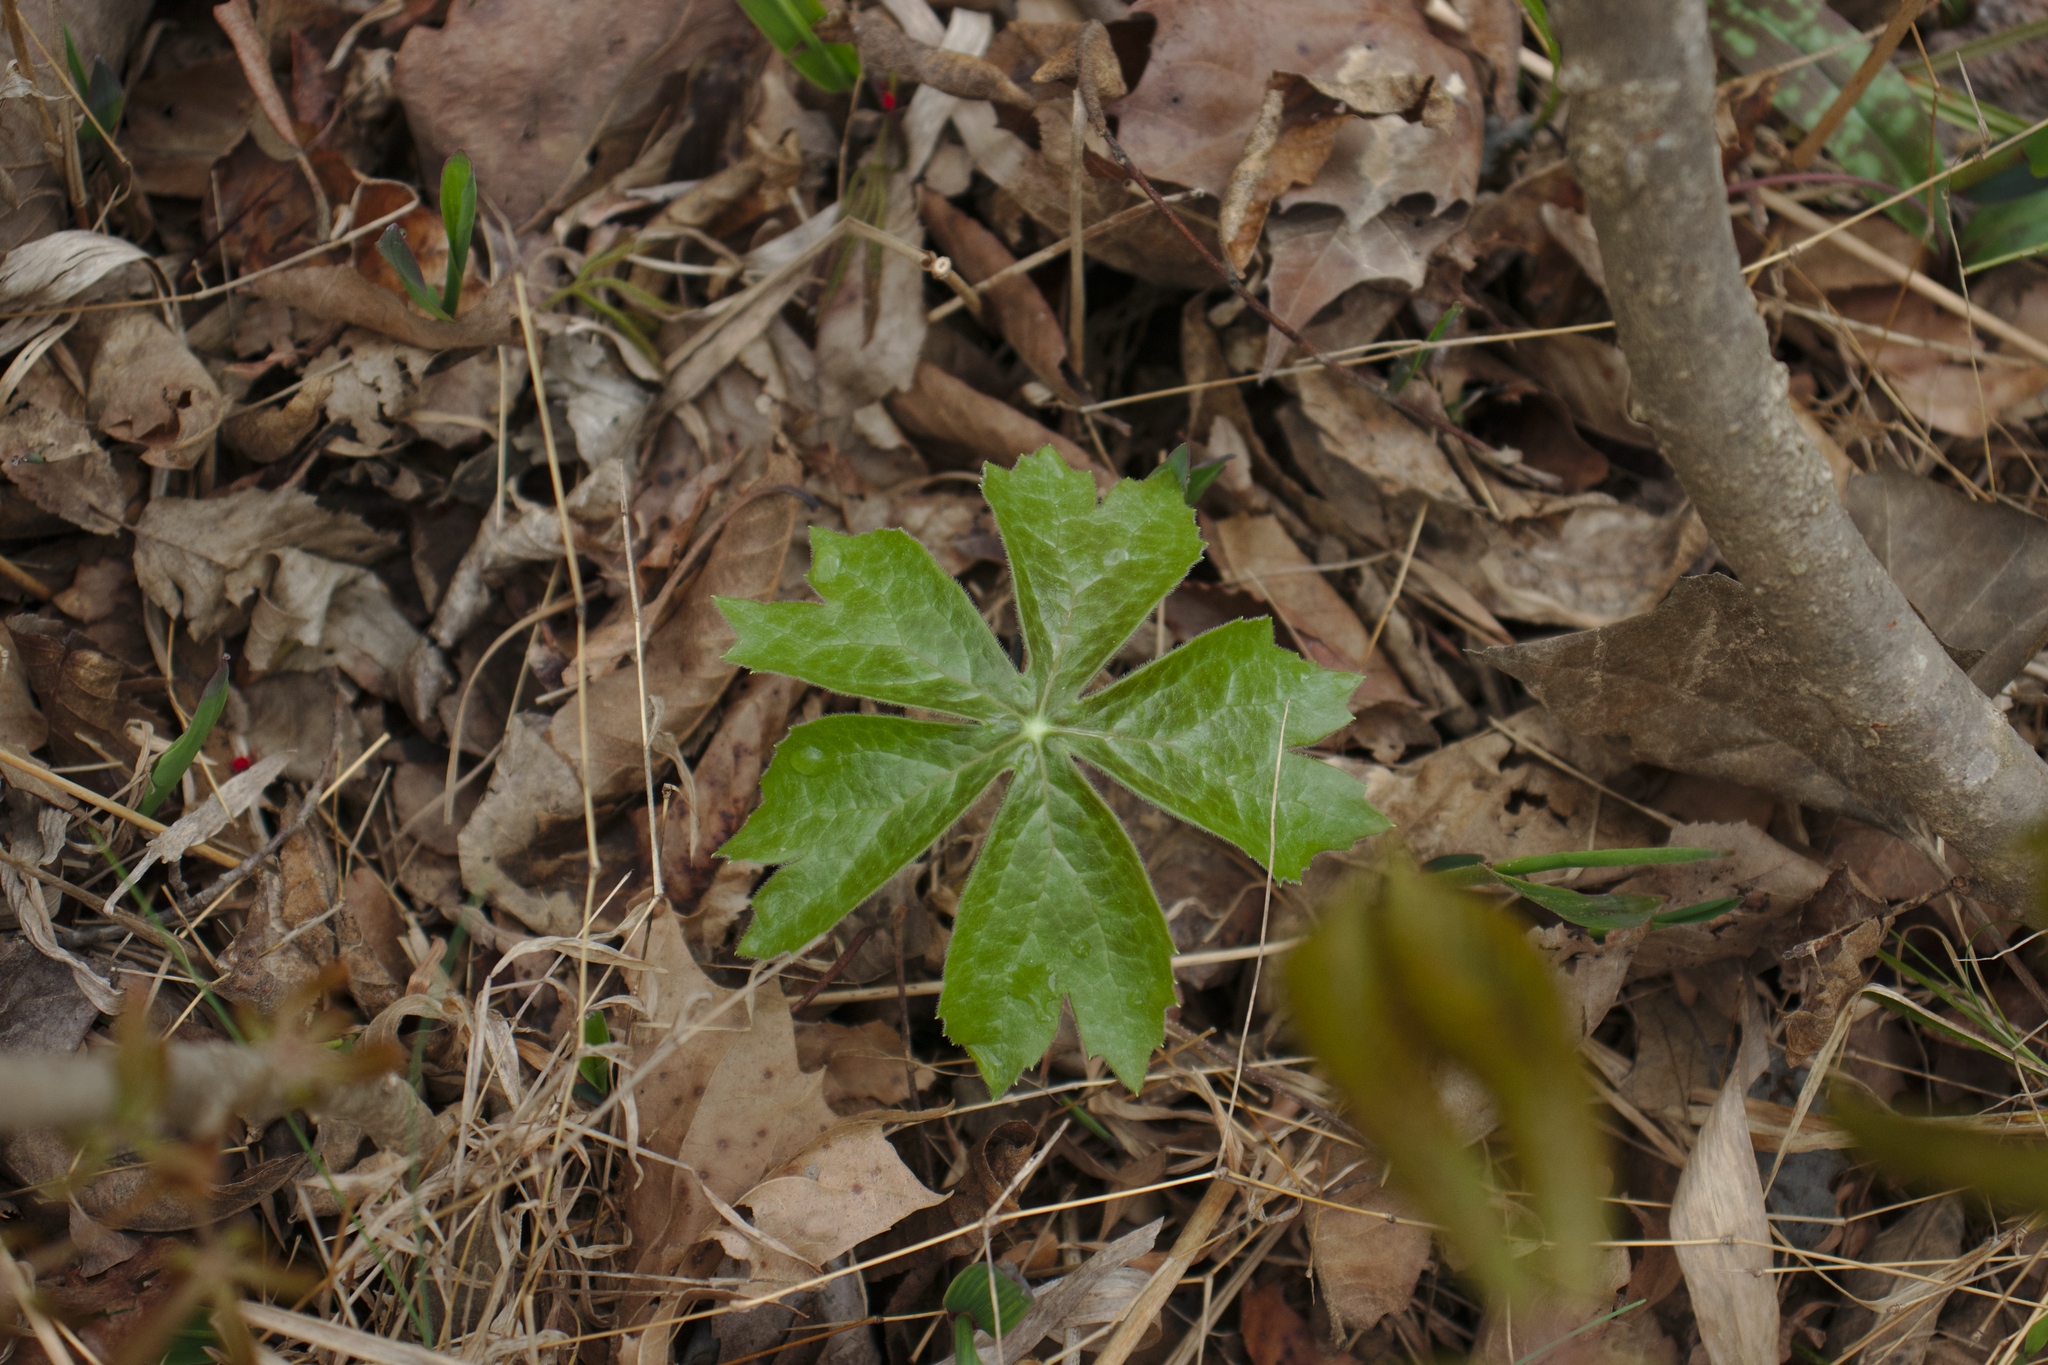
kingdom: Plantae
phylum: Tracheophyta
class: Magnoliopsida
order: Ranunculales
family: Berberidaceae
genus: Podophyllum
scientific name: Podophyllum peltatum
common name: Wild mandrake
